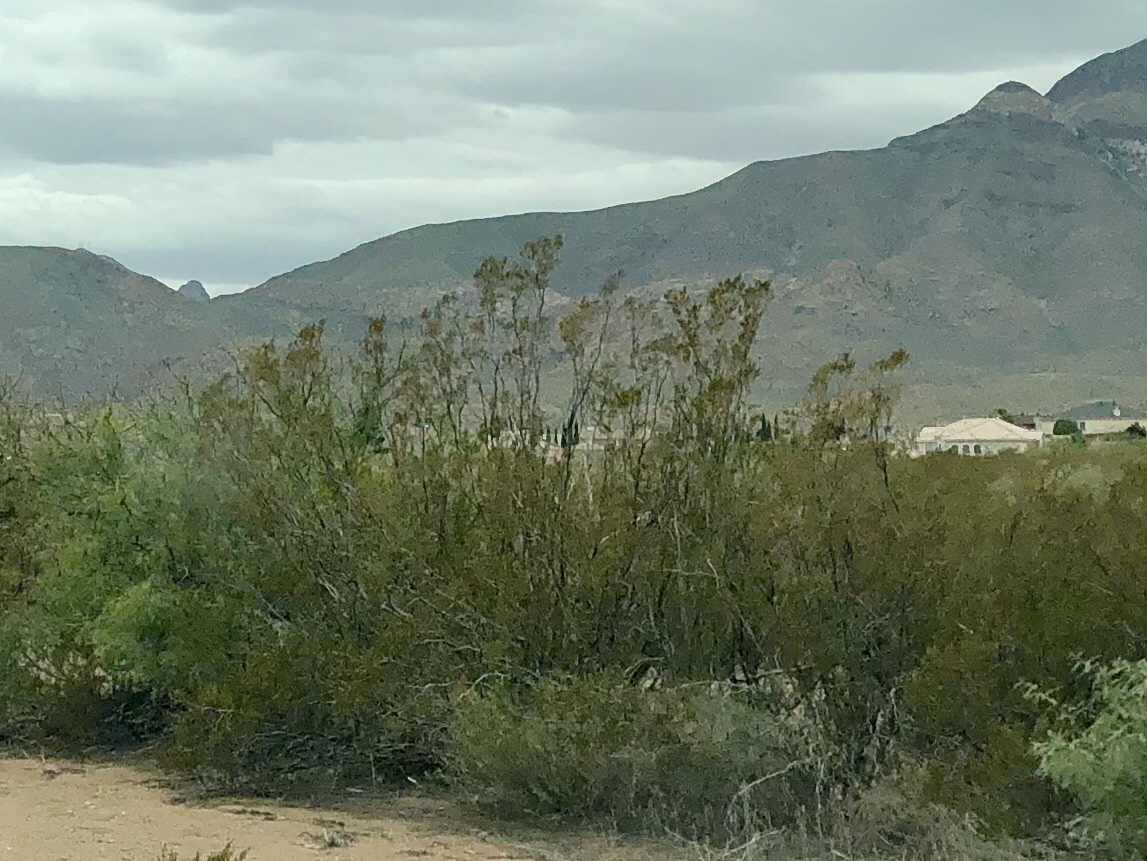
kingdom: Plantae
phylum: Tracheophyta
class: Magnoliopsida
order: Zygophyllales
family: Zygophyllaceae
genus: Larrea
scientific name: Larrea tridentata
